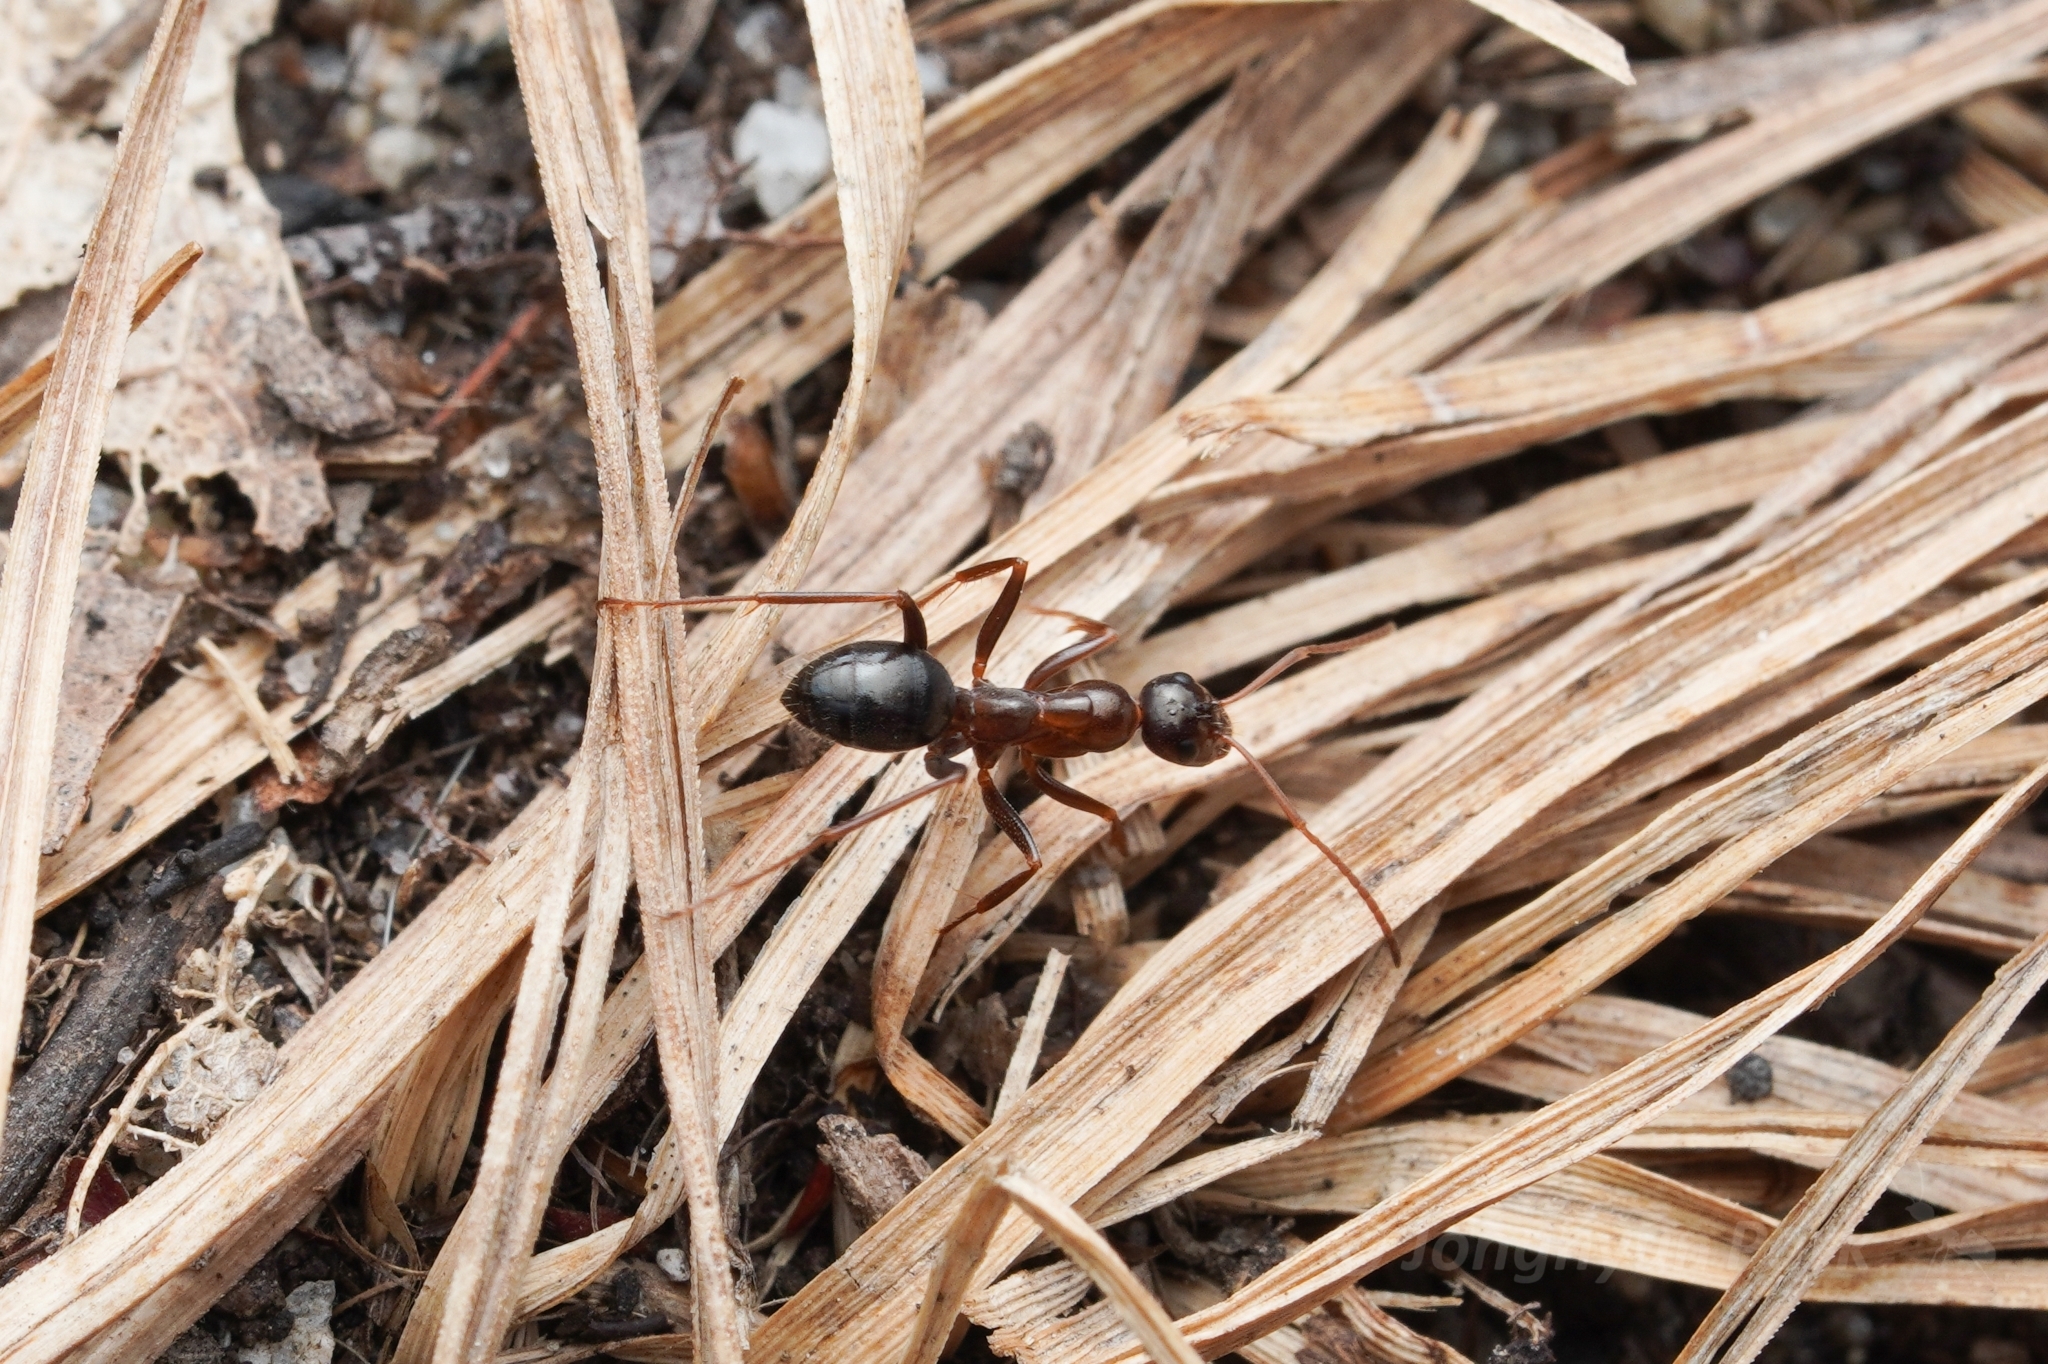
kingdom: Animalia
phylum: Arthropoda
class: Insecta
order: Hymenoptera
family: Formicidae
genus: Formica
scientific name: Formica pallidefulva
